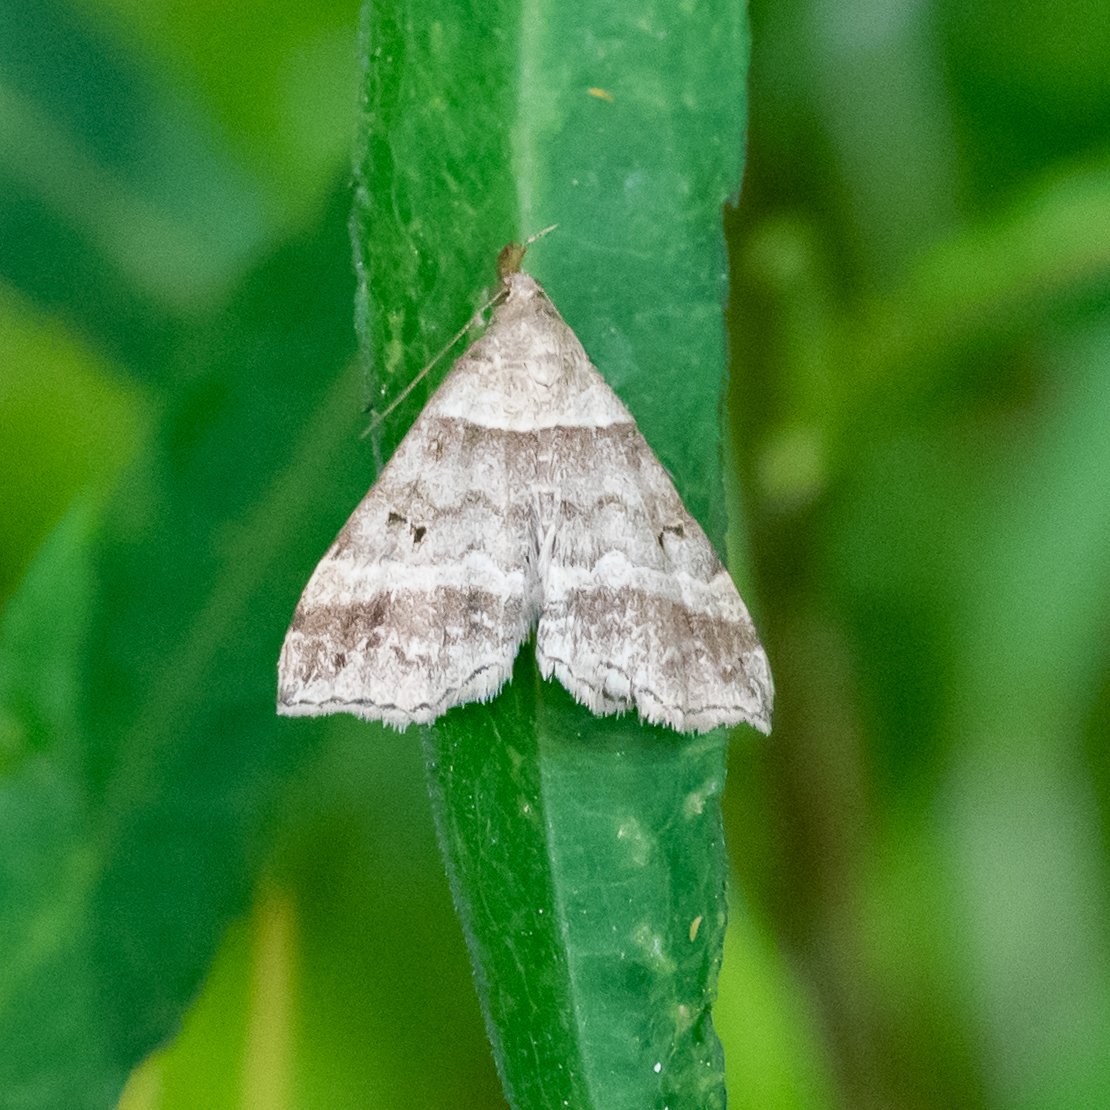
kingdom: Animalia
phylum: Arthropoda
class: Insecta
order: Lepidoptera
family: Erebidae
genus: Phaeolita
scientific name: Phaeolita pyramusalis
